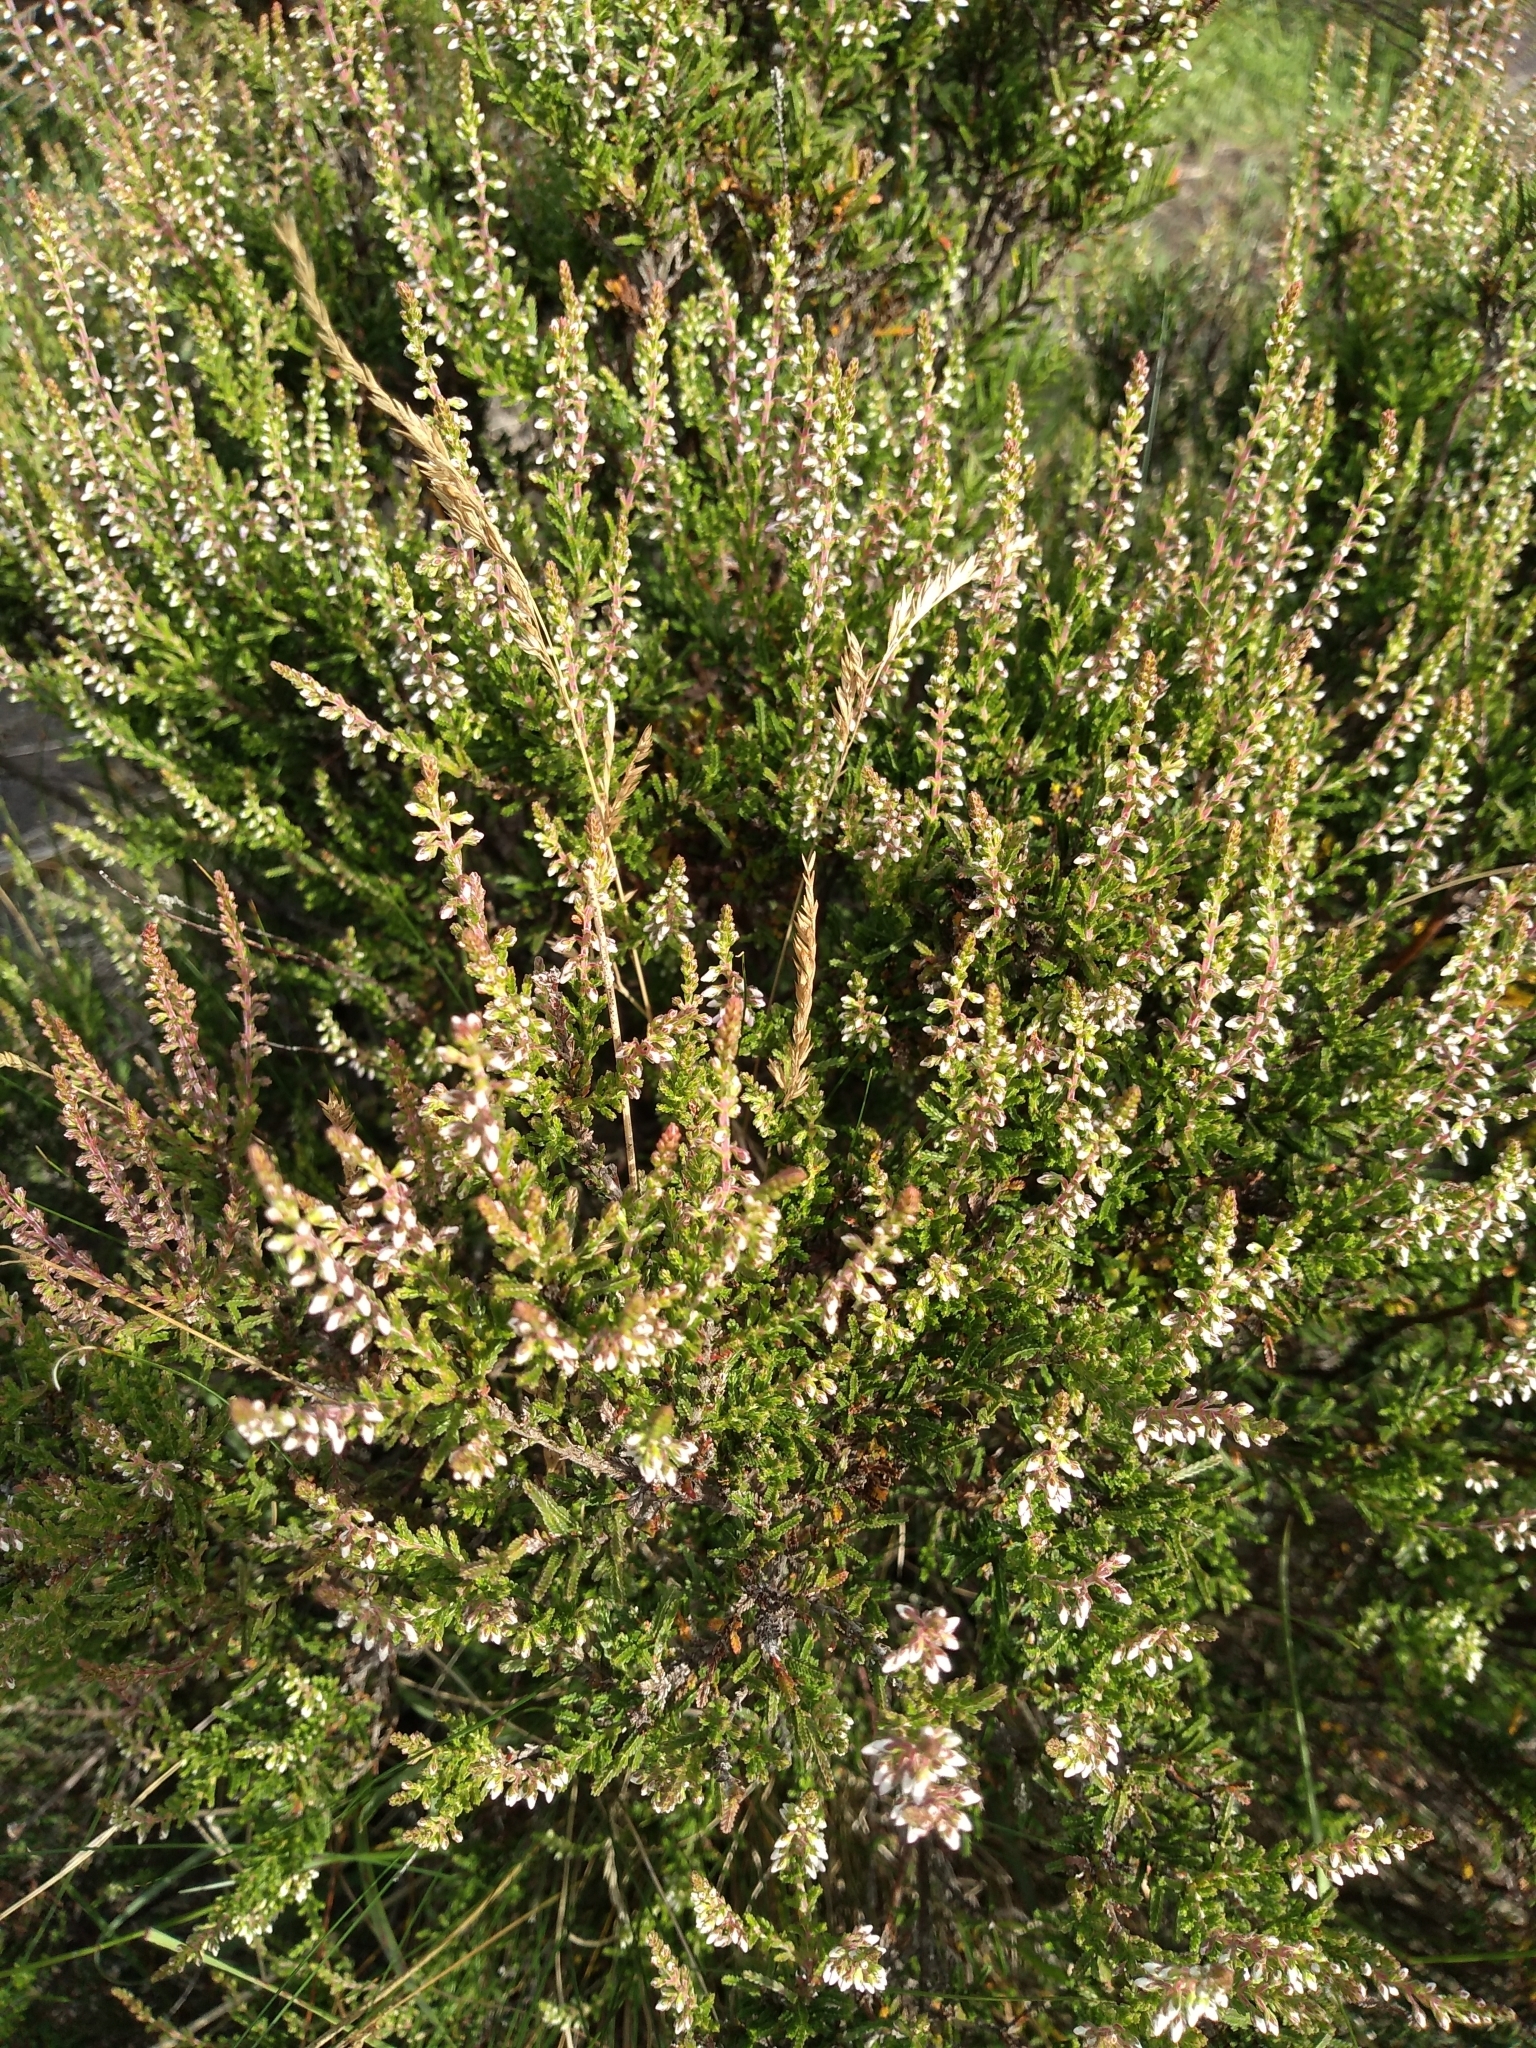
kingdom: Plantae
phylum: Tracheophyta
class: Magnoliopsida
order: Ericales
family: Ericaceae
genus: Calluna
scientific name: Calluna vulgaris
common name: Heather
